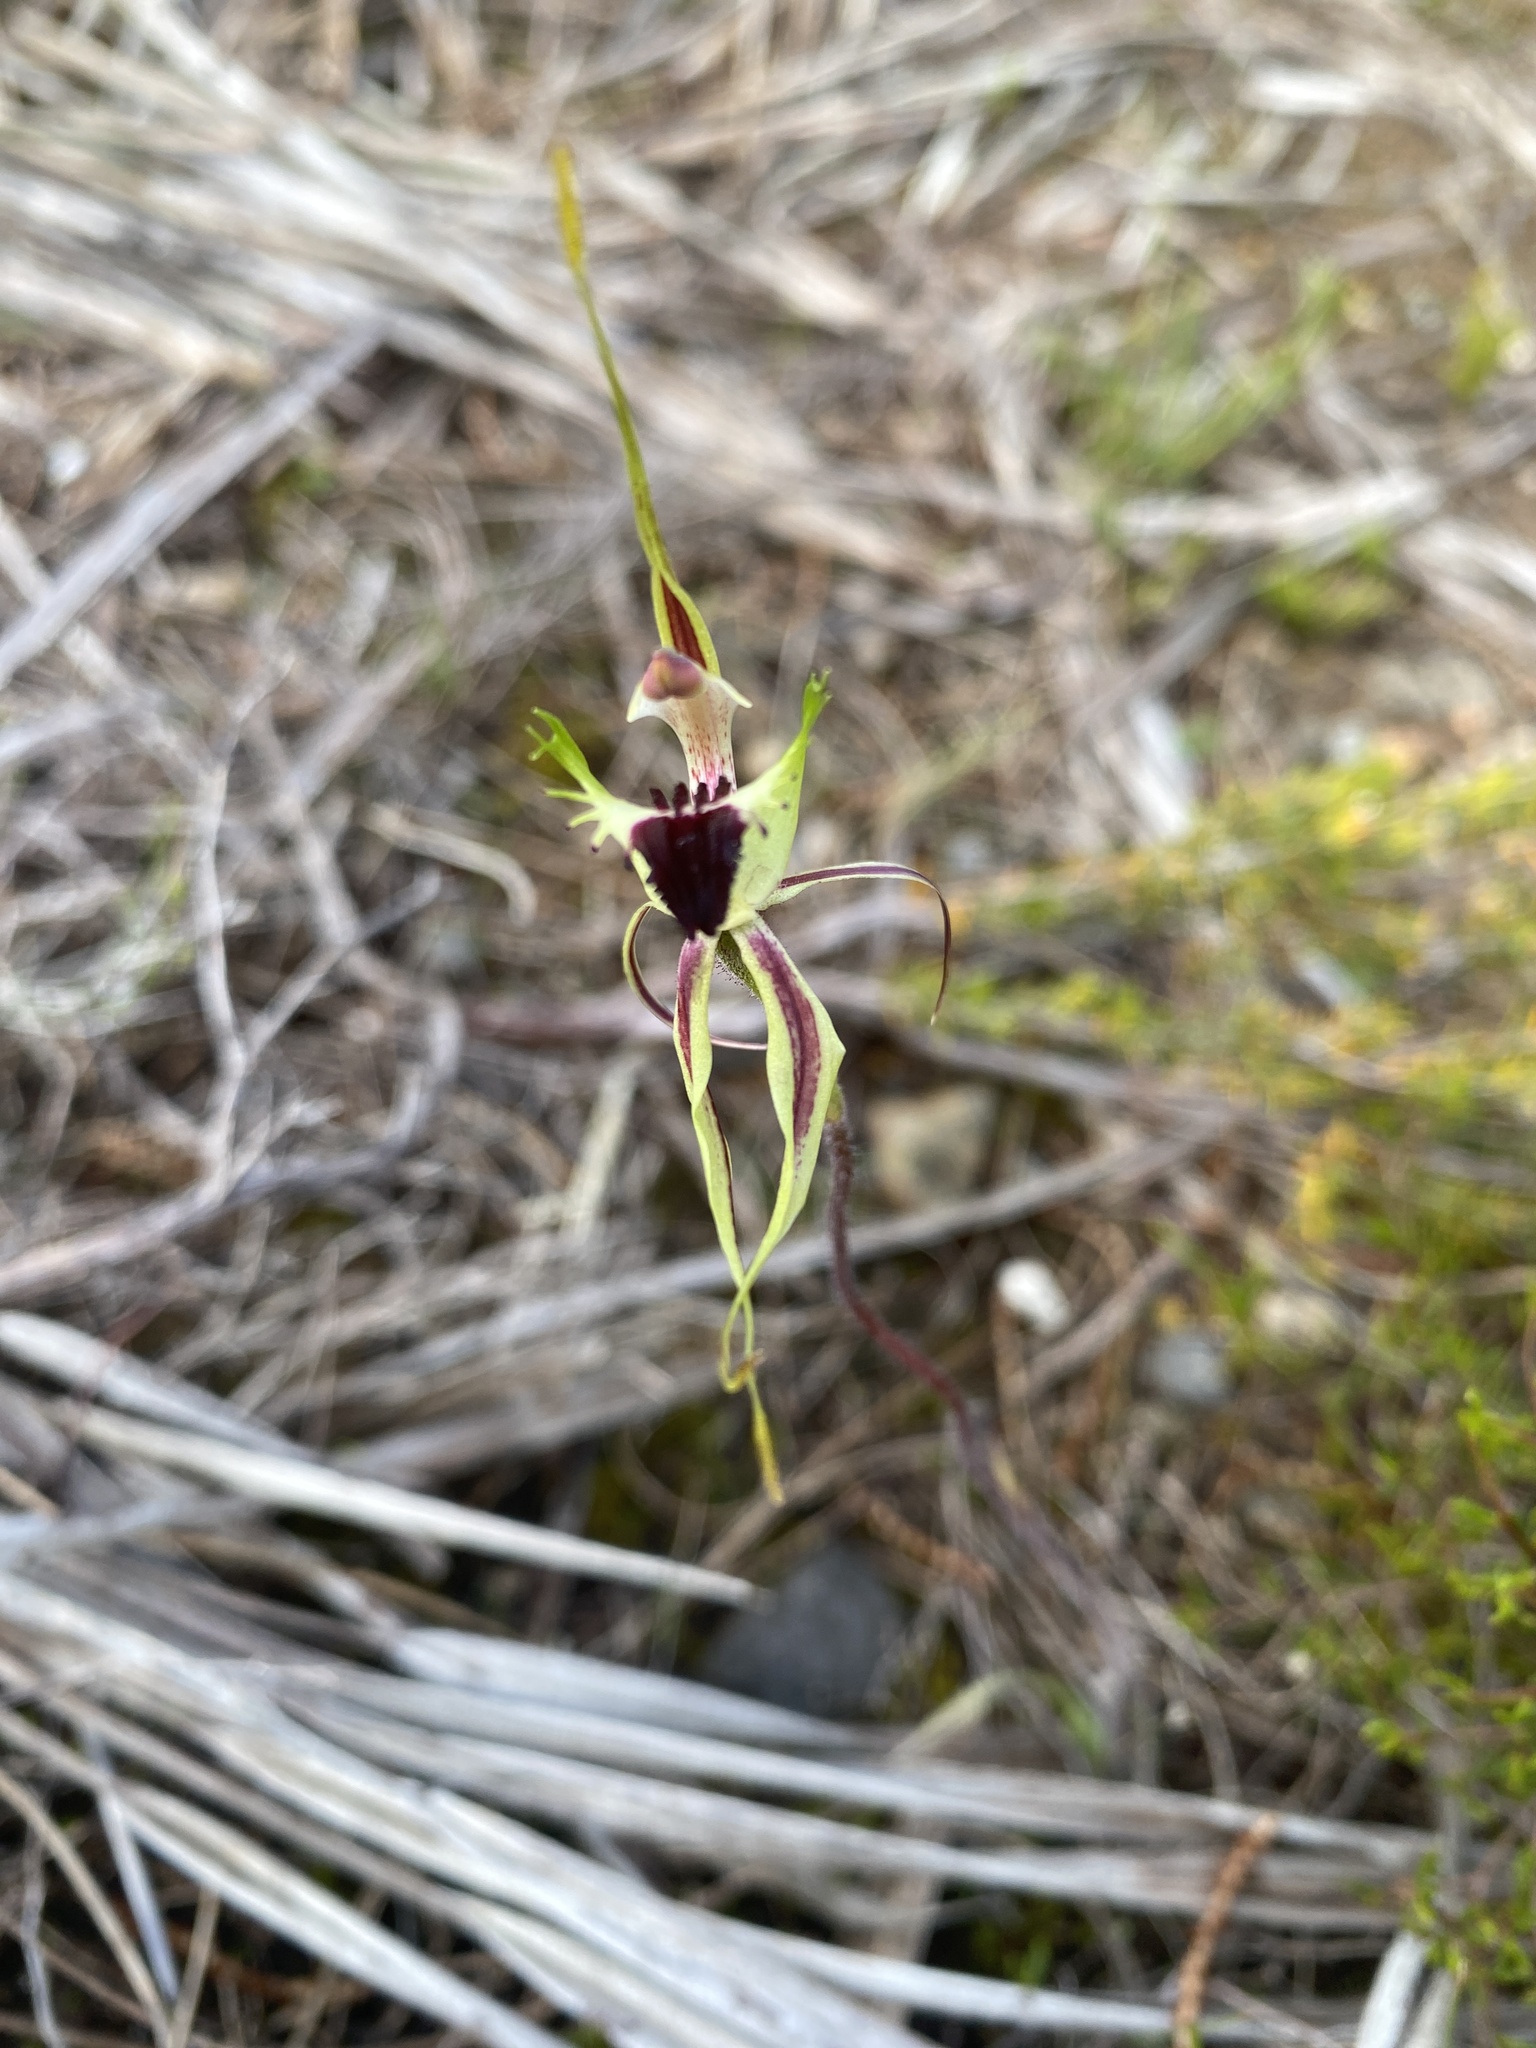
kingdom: Plantae
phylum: Tracheophyta
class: Liliopsida
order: Asparagales
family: Orchidaceae
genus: Caladenia
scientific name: Caladenia campestris
